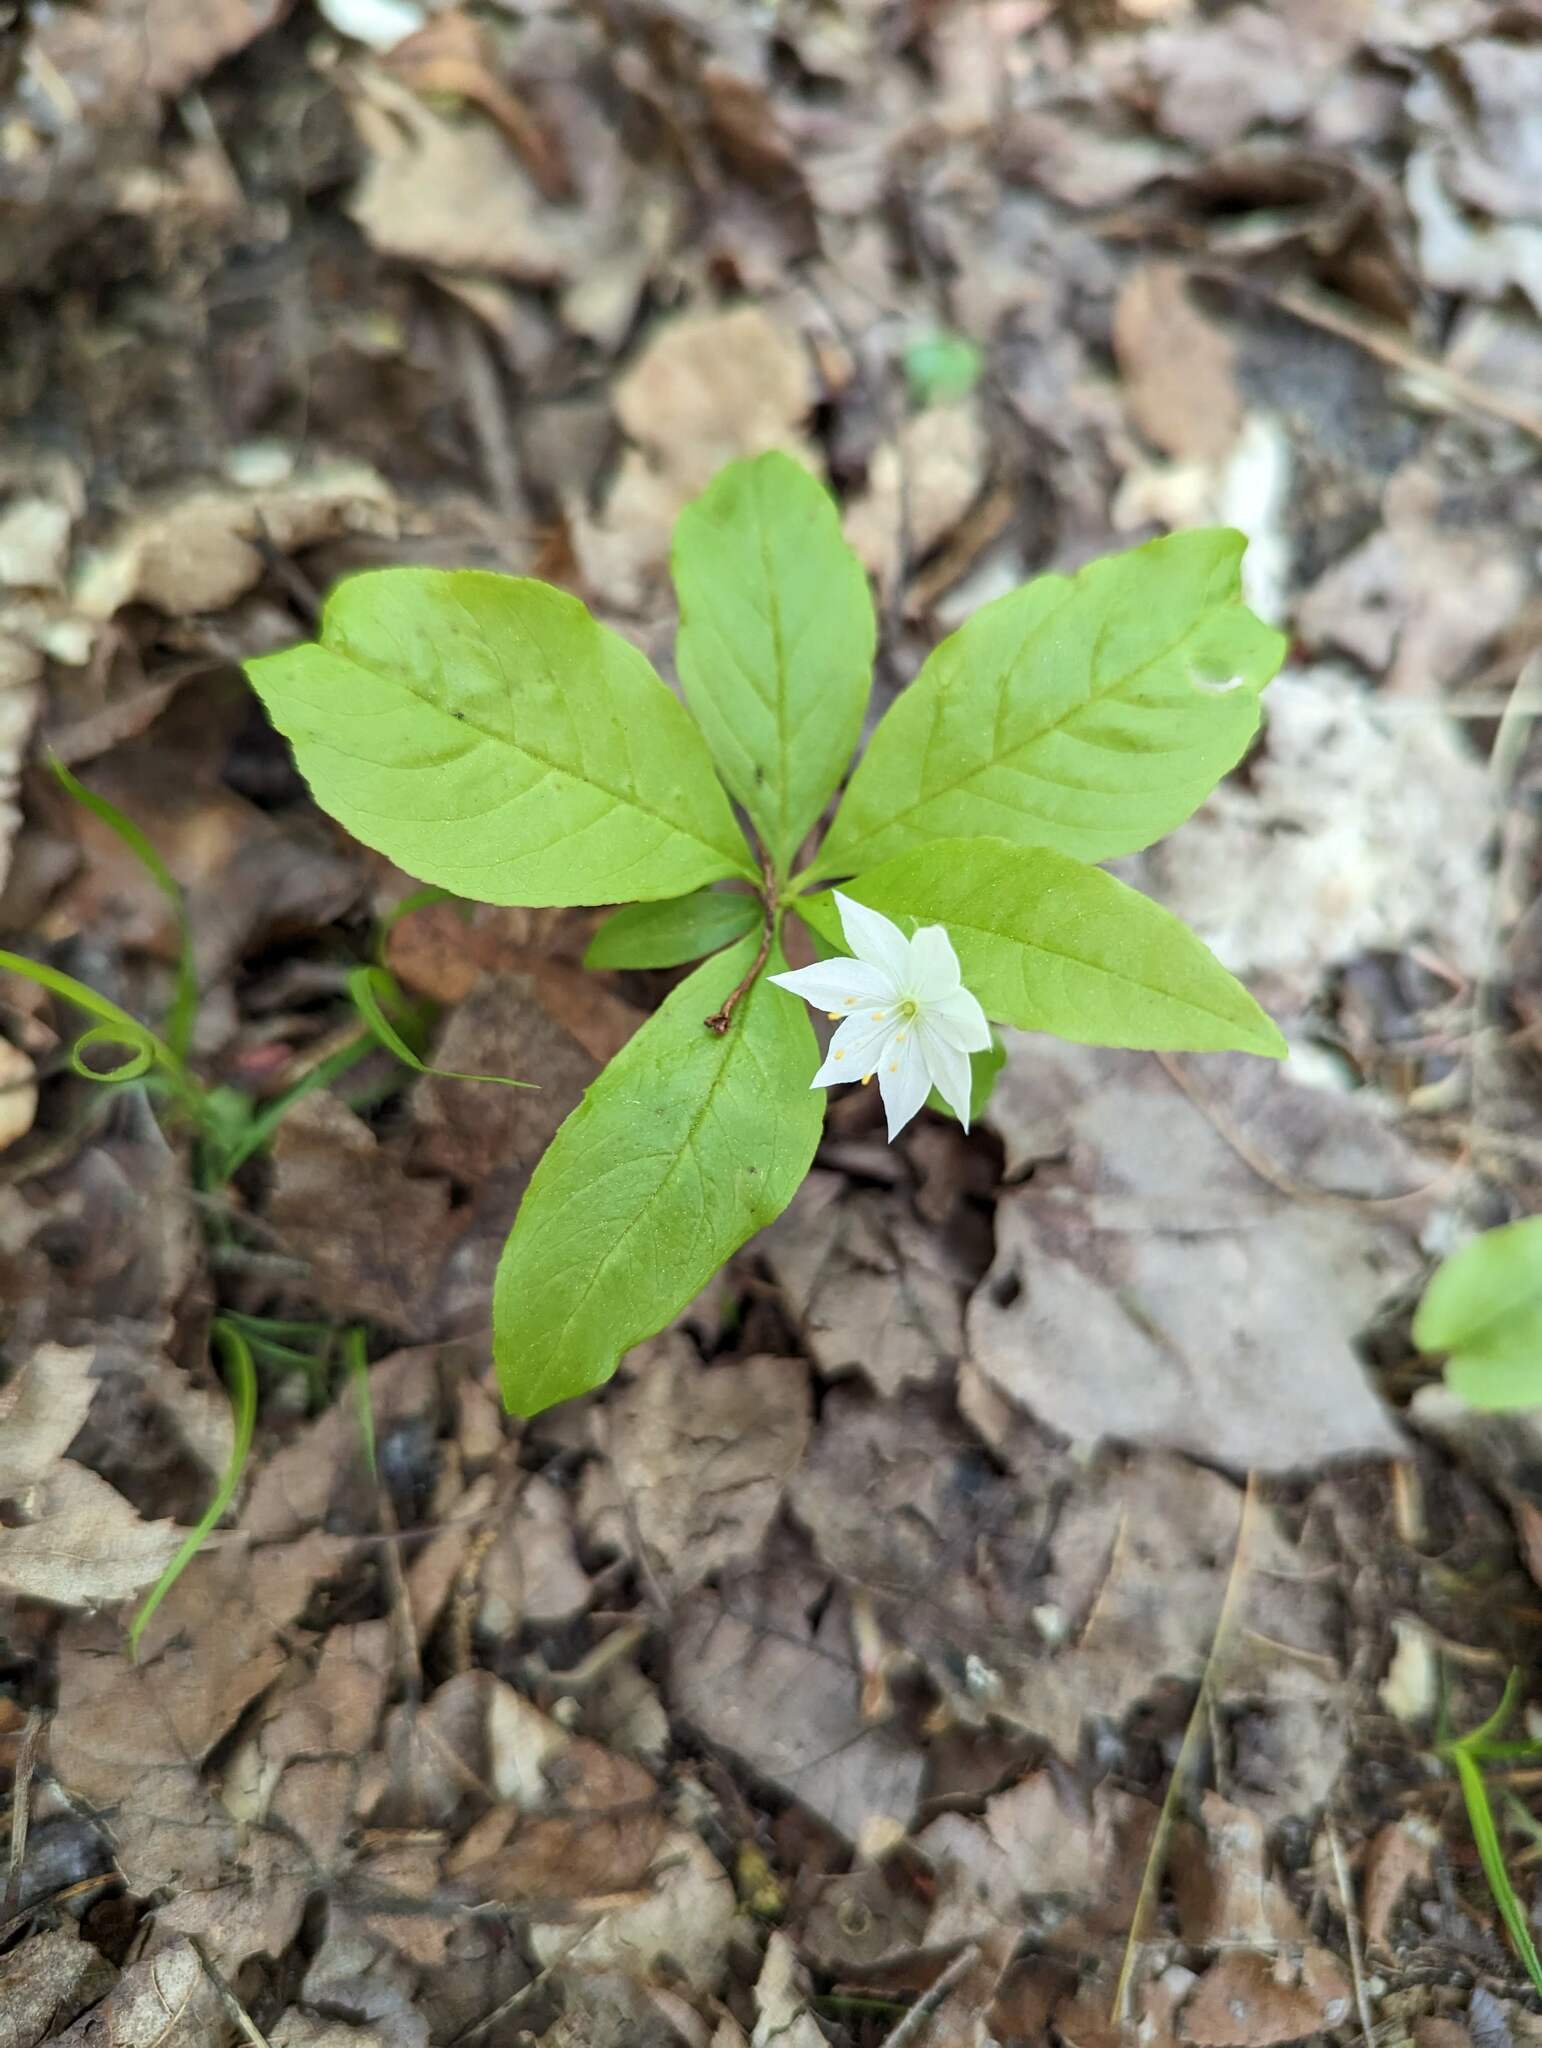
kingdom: Plantae
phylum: Tracheophyta
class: Magnoliopsida
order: Ericales
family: Primulaceae
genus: Lysimachia
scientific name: Lysimachia borealis
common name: American starflower
